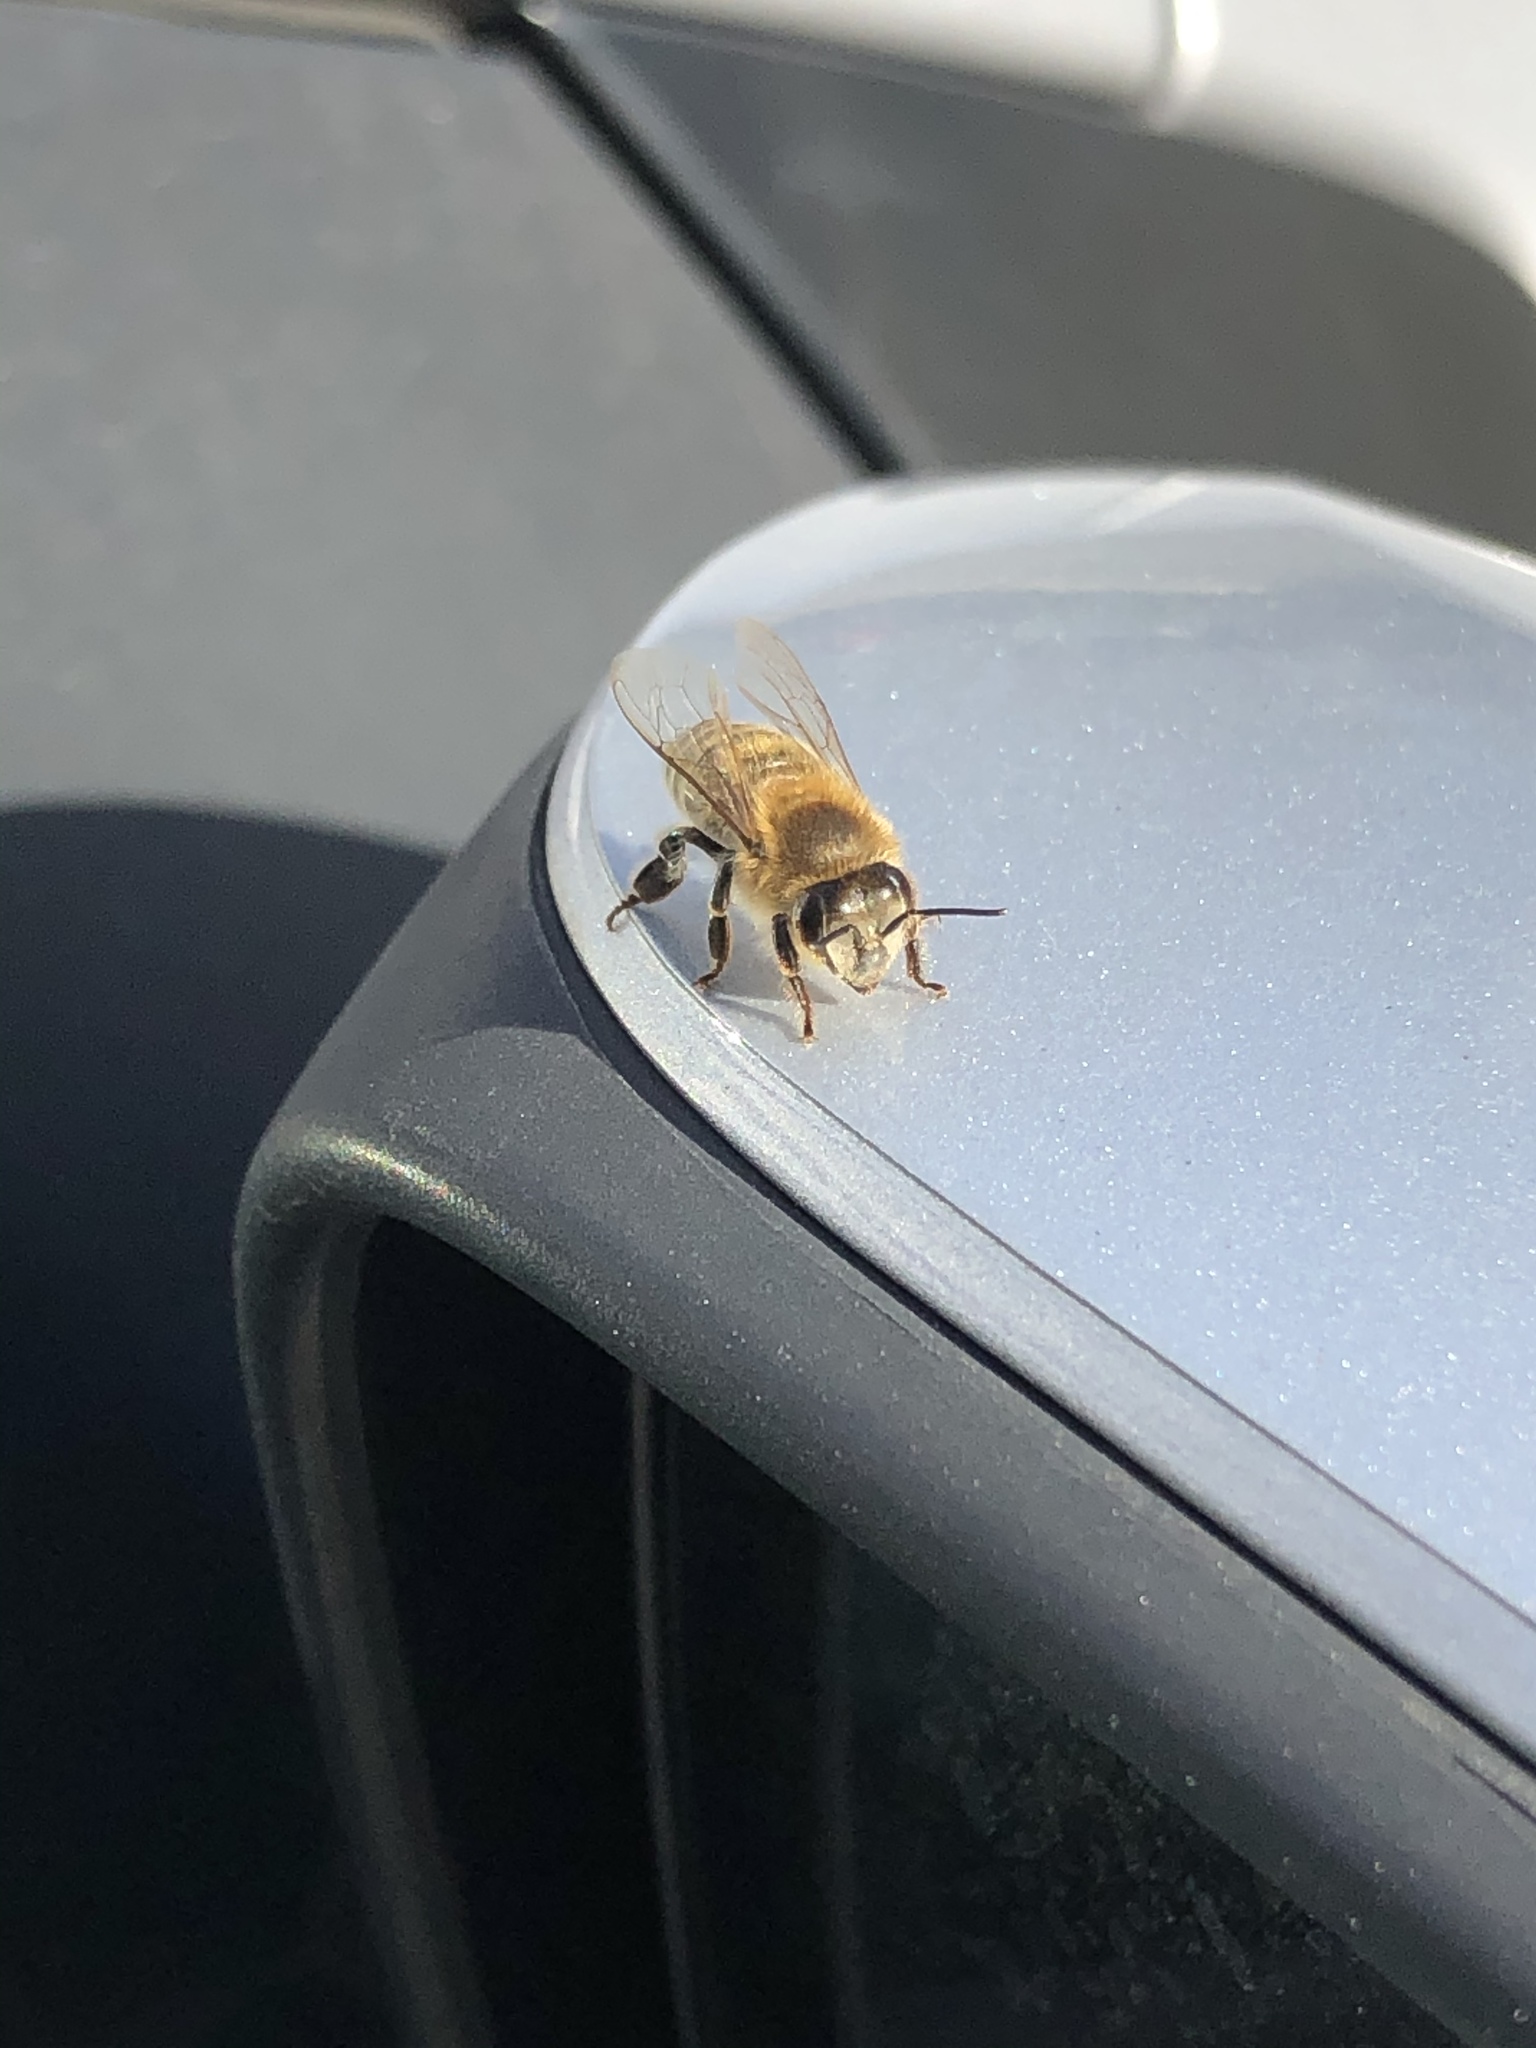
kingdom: Animalia
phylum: Arthropoda
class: Insecta
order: Hymenoptera
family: Apidae
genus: Apis
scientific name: Apis mellifera
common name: Honey bee
